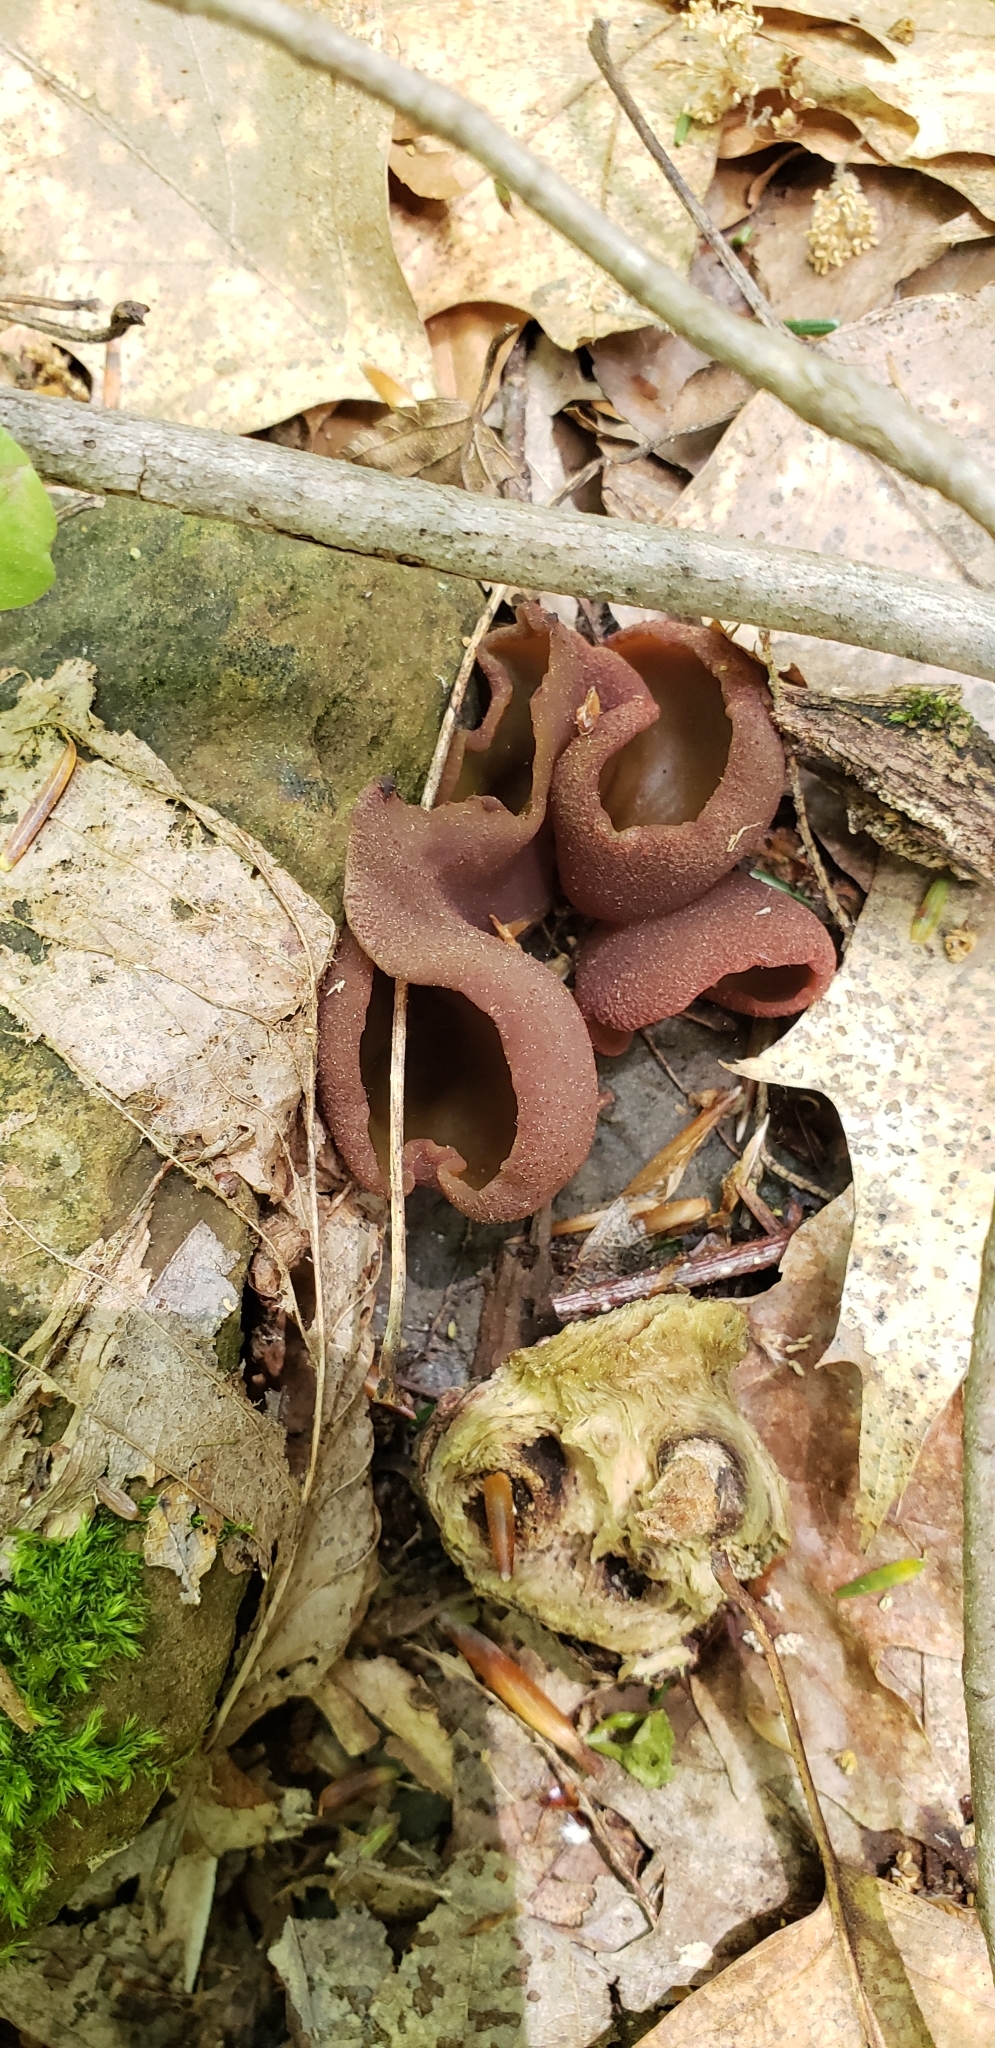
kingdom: Fungi
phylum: Ascomycota
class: Pezizomycetes
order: Pezizales
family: Pezizaceae
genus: Phylloscypha
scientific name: Phylloscypha phyllogena
